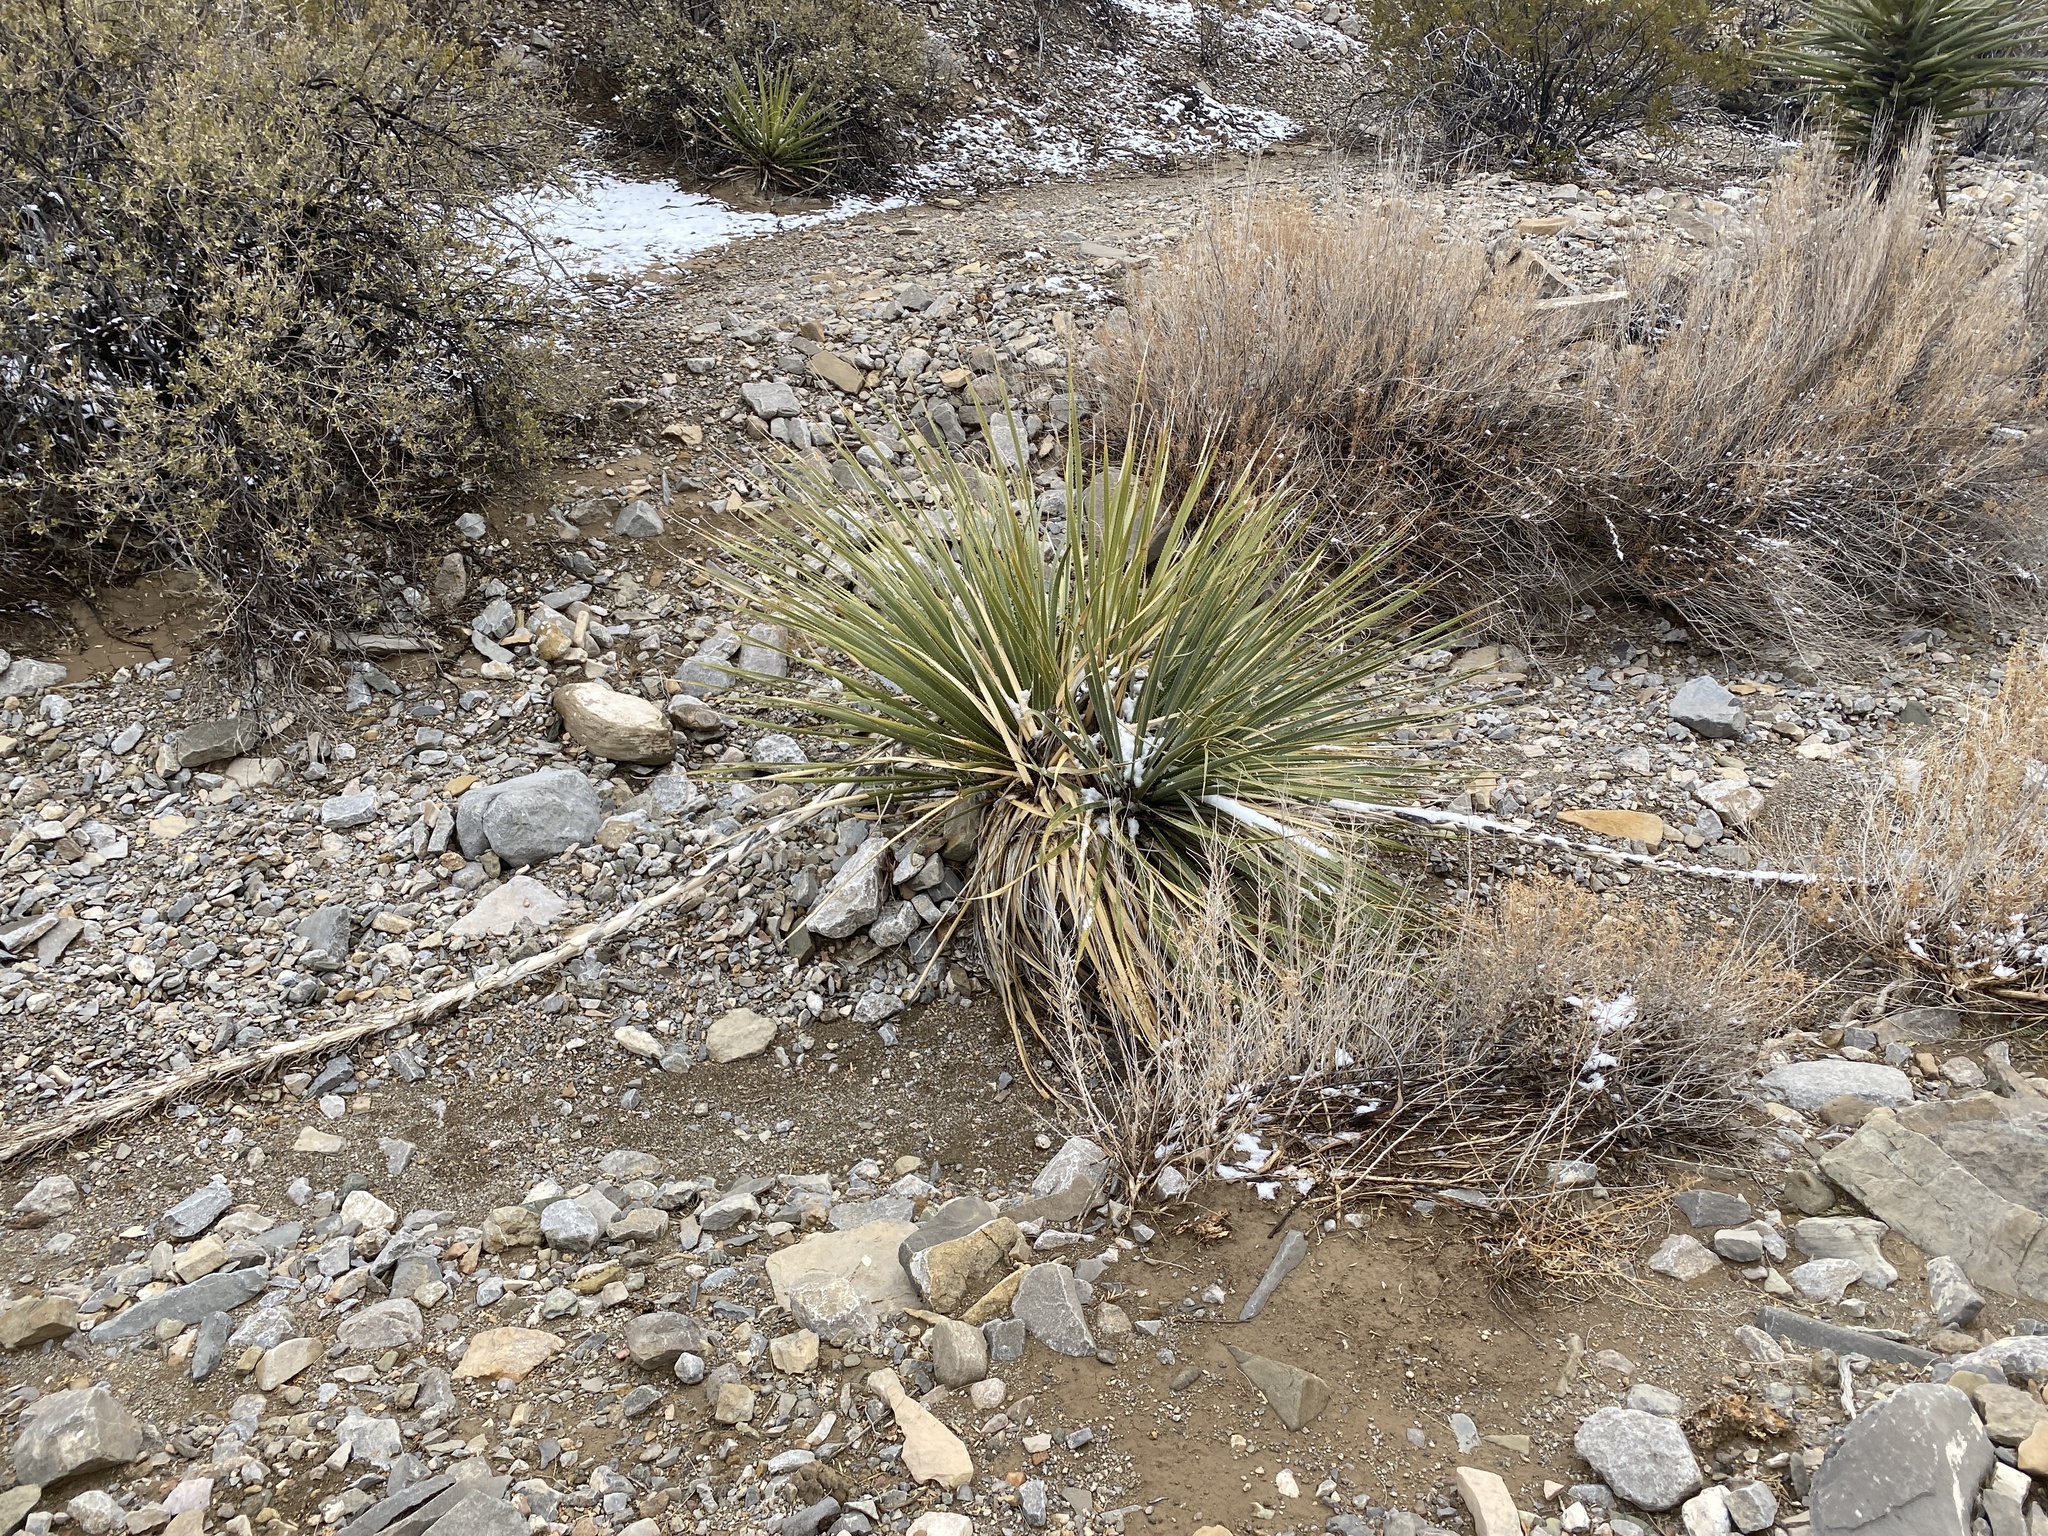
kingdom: Plantae
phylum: Tracheophyta
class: Liliopsida
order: Asparagales
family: Asparagaceae
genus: Dasylirion
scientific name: Dasylirion wheeleri
